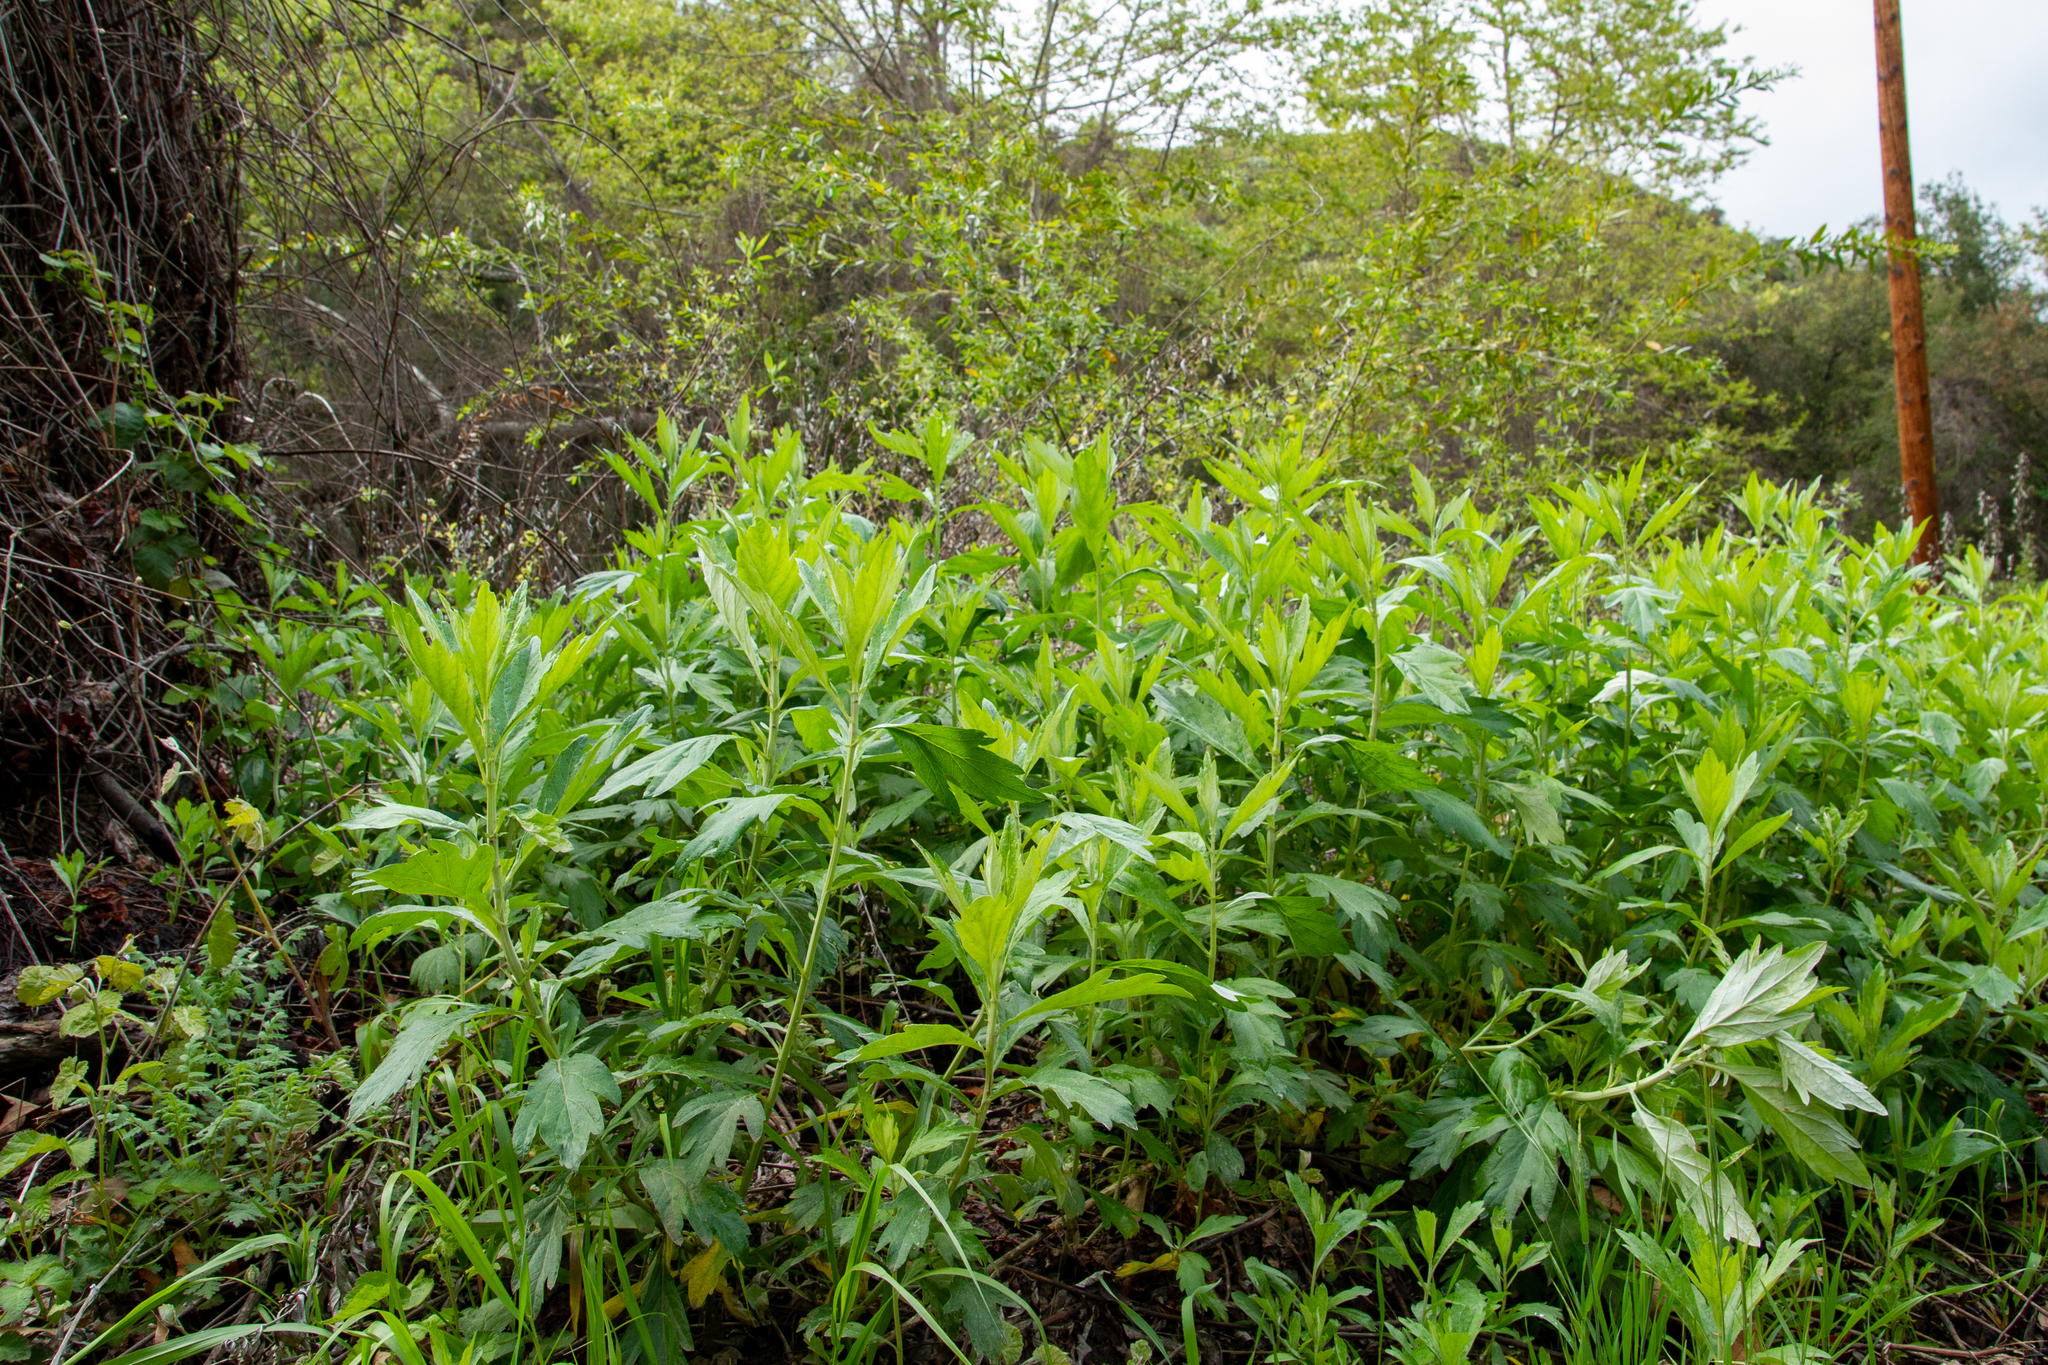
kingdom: Plantae
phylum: Tracheophyta
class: Magnoliopsida
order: Asterales
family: Asteraceae
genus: Artemisia
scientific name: Artemisia douglasiana
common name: Northwest mugwort
